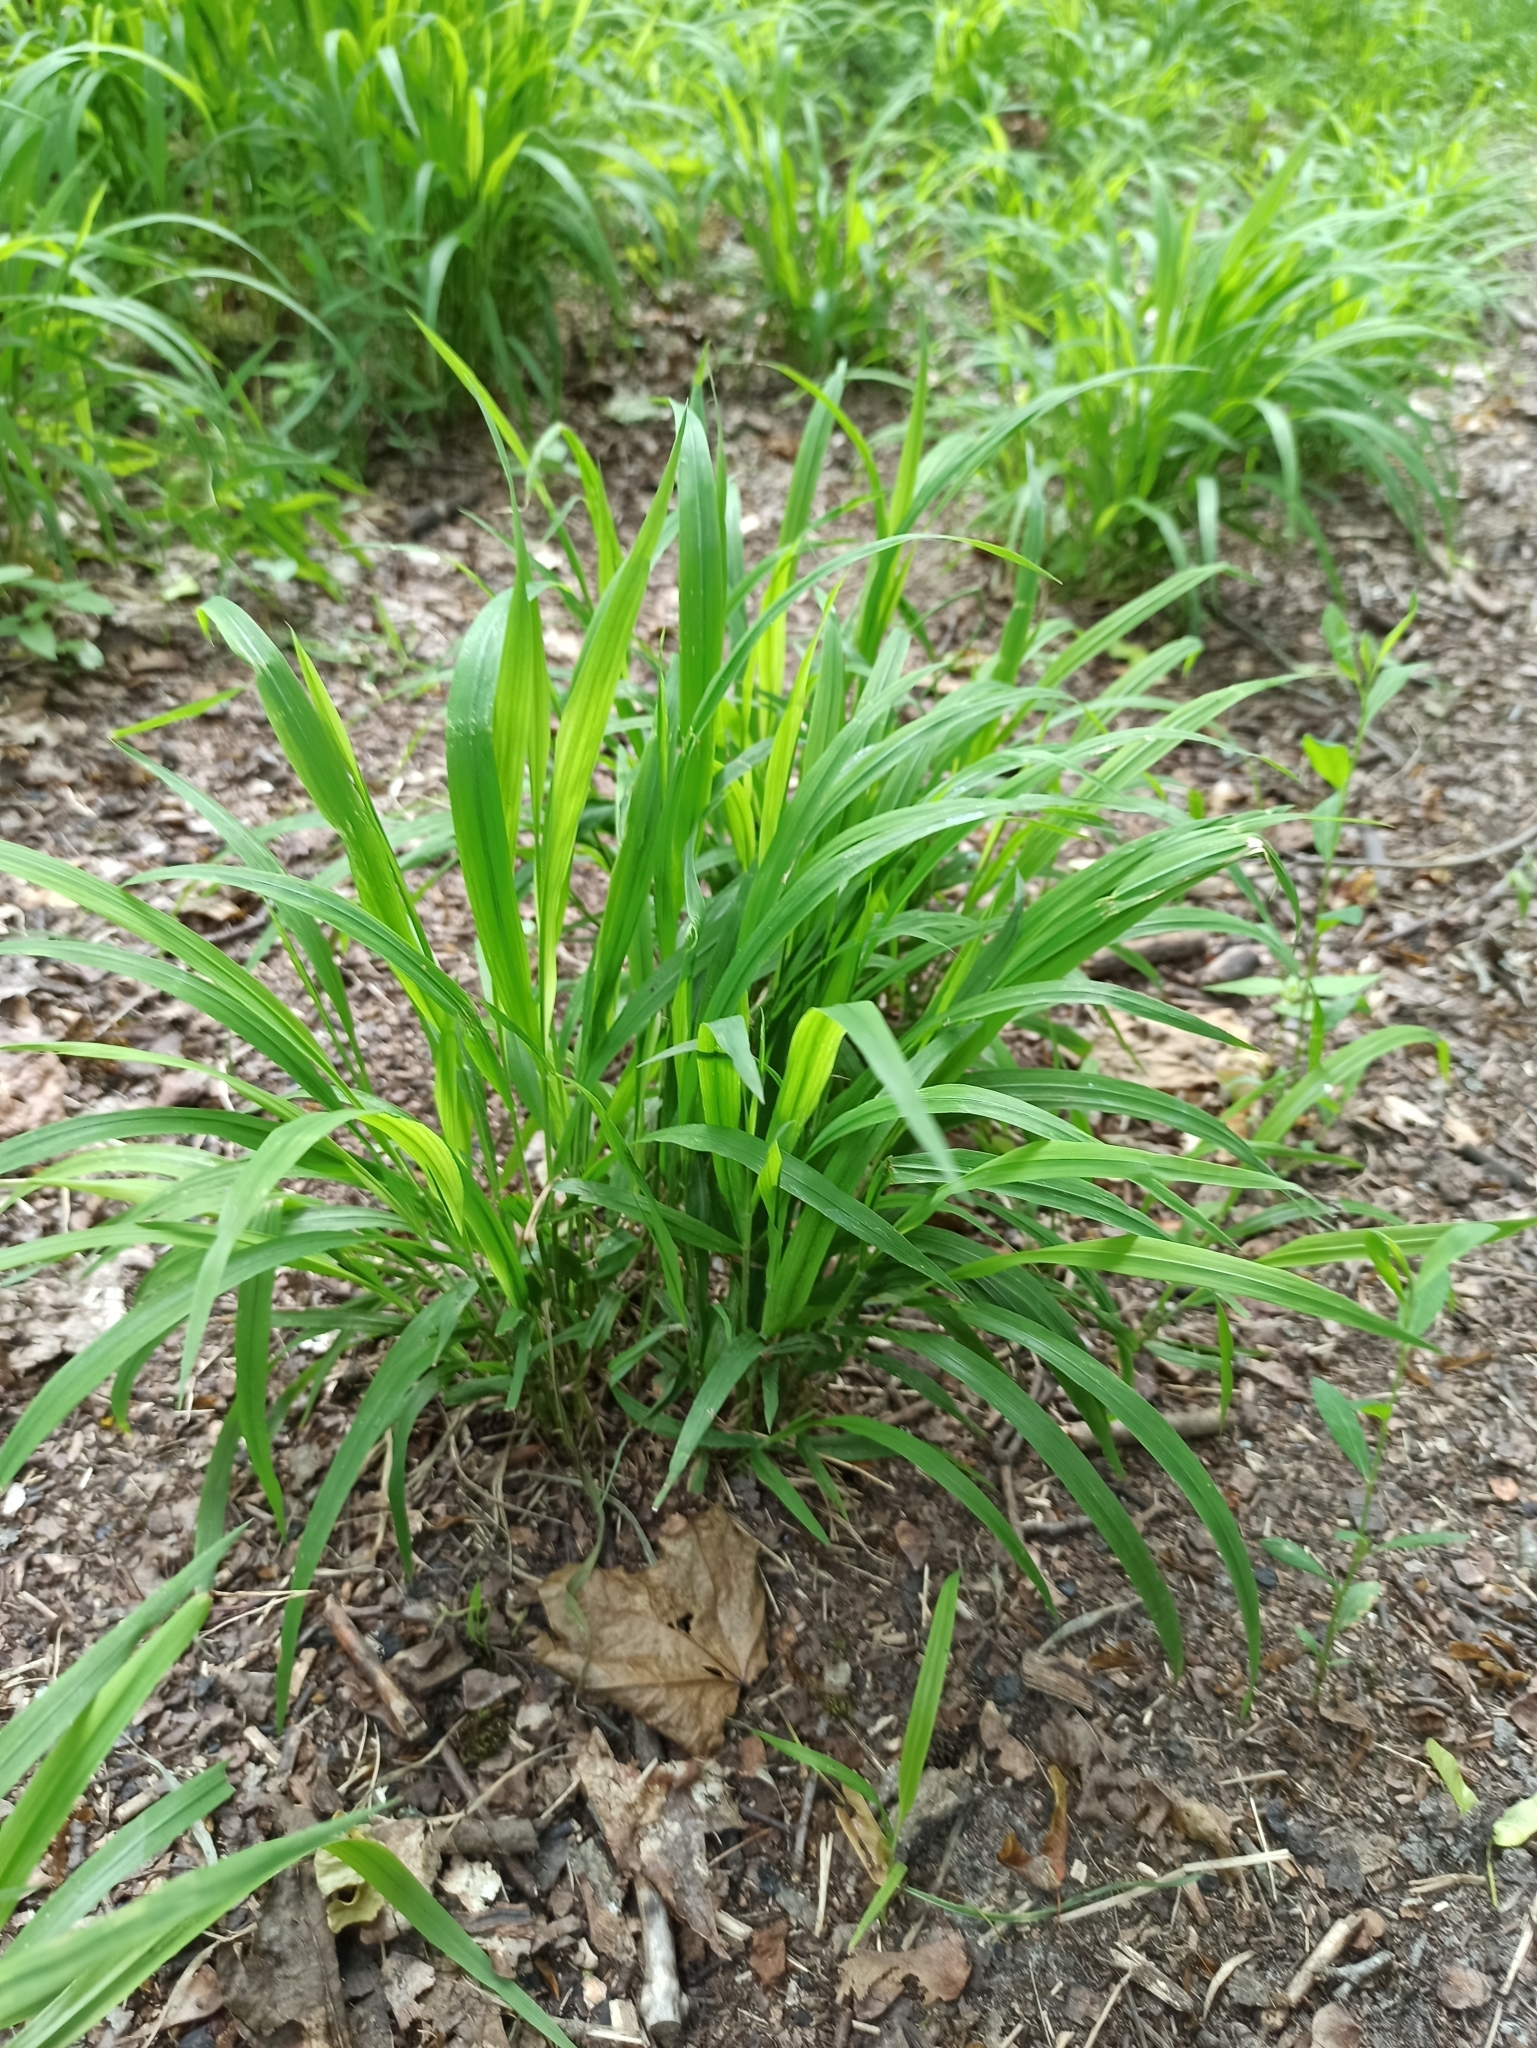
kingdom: Plantae
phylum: Tracheophyta
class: Liliopsida
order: Poales
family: Poaceae
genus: Brachypodium
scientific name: Brachypodium sylvaticum
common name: False-brome
